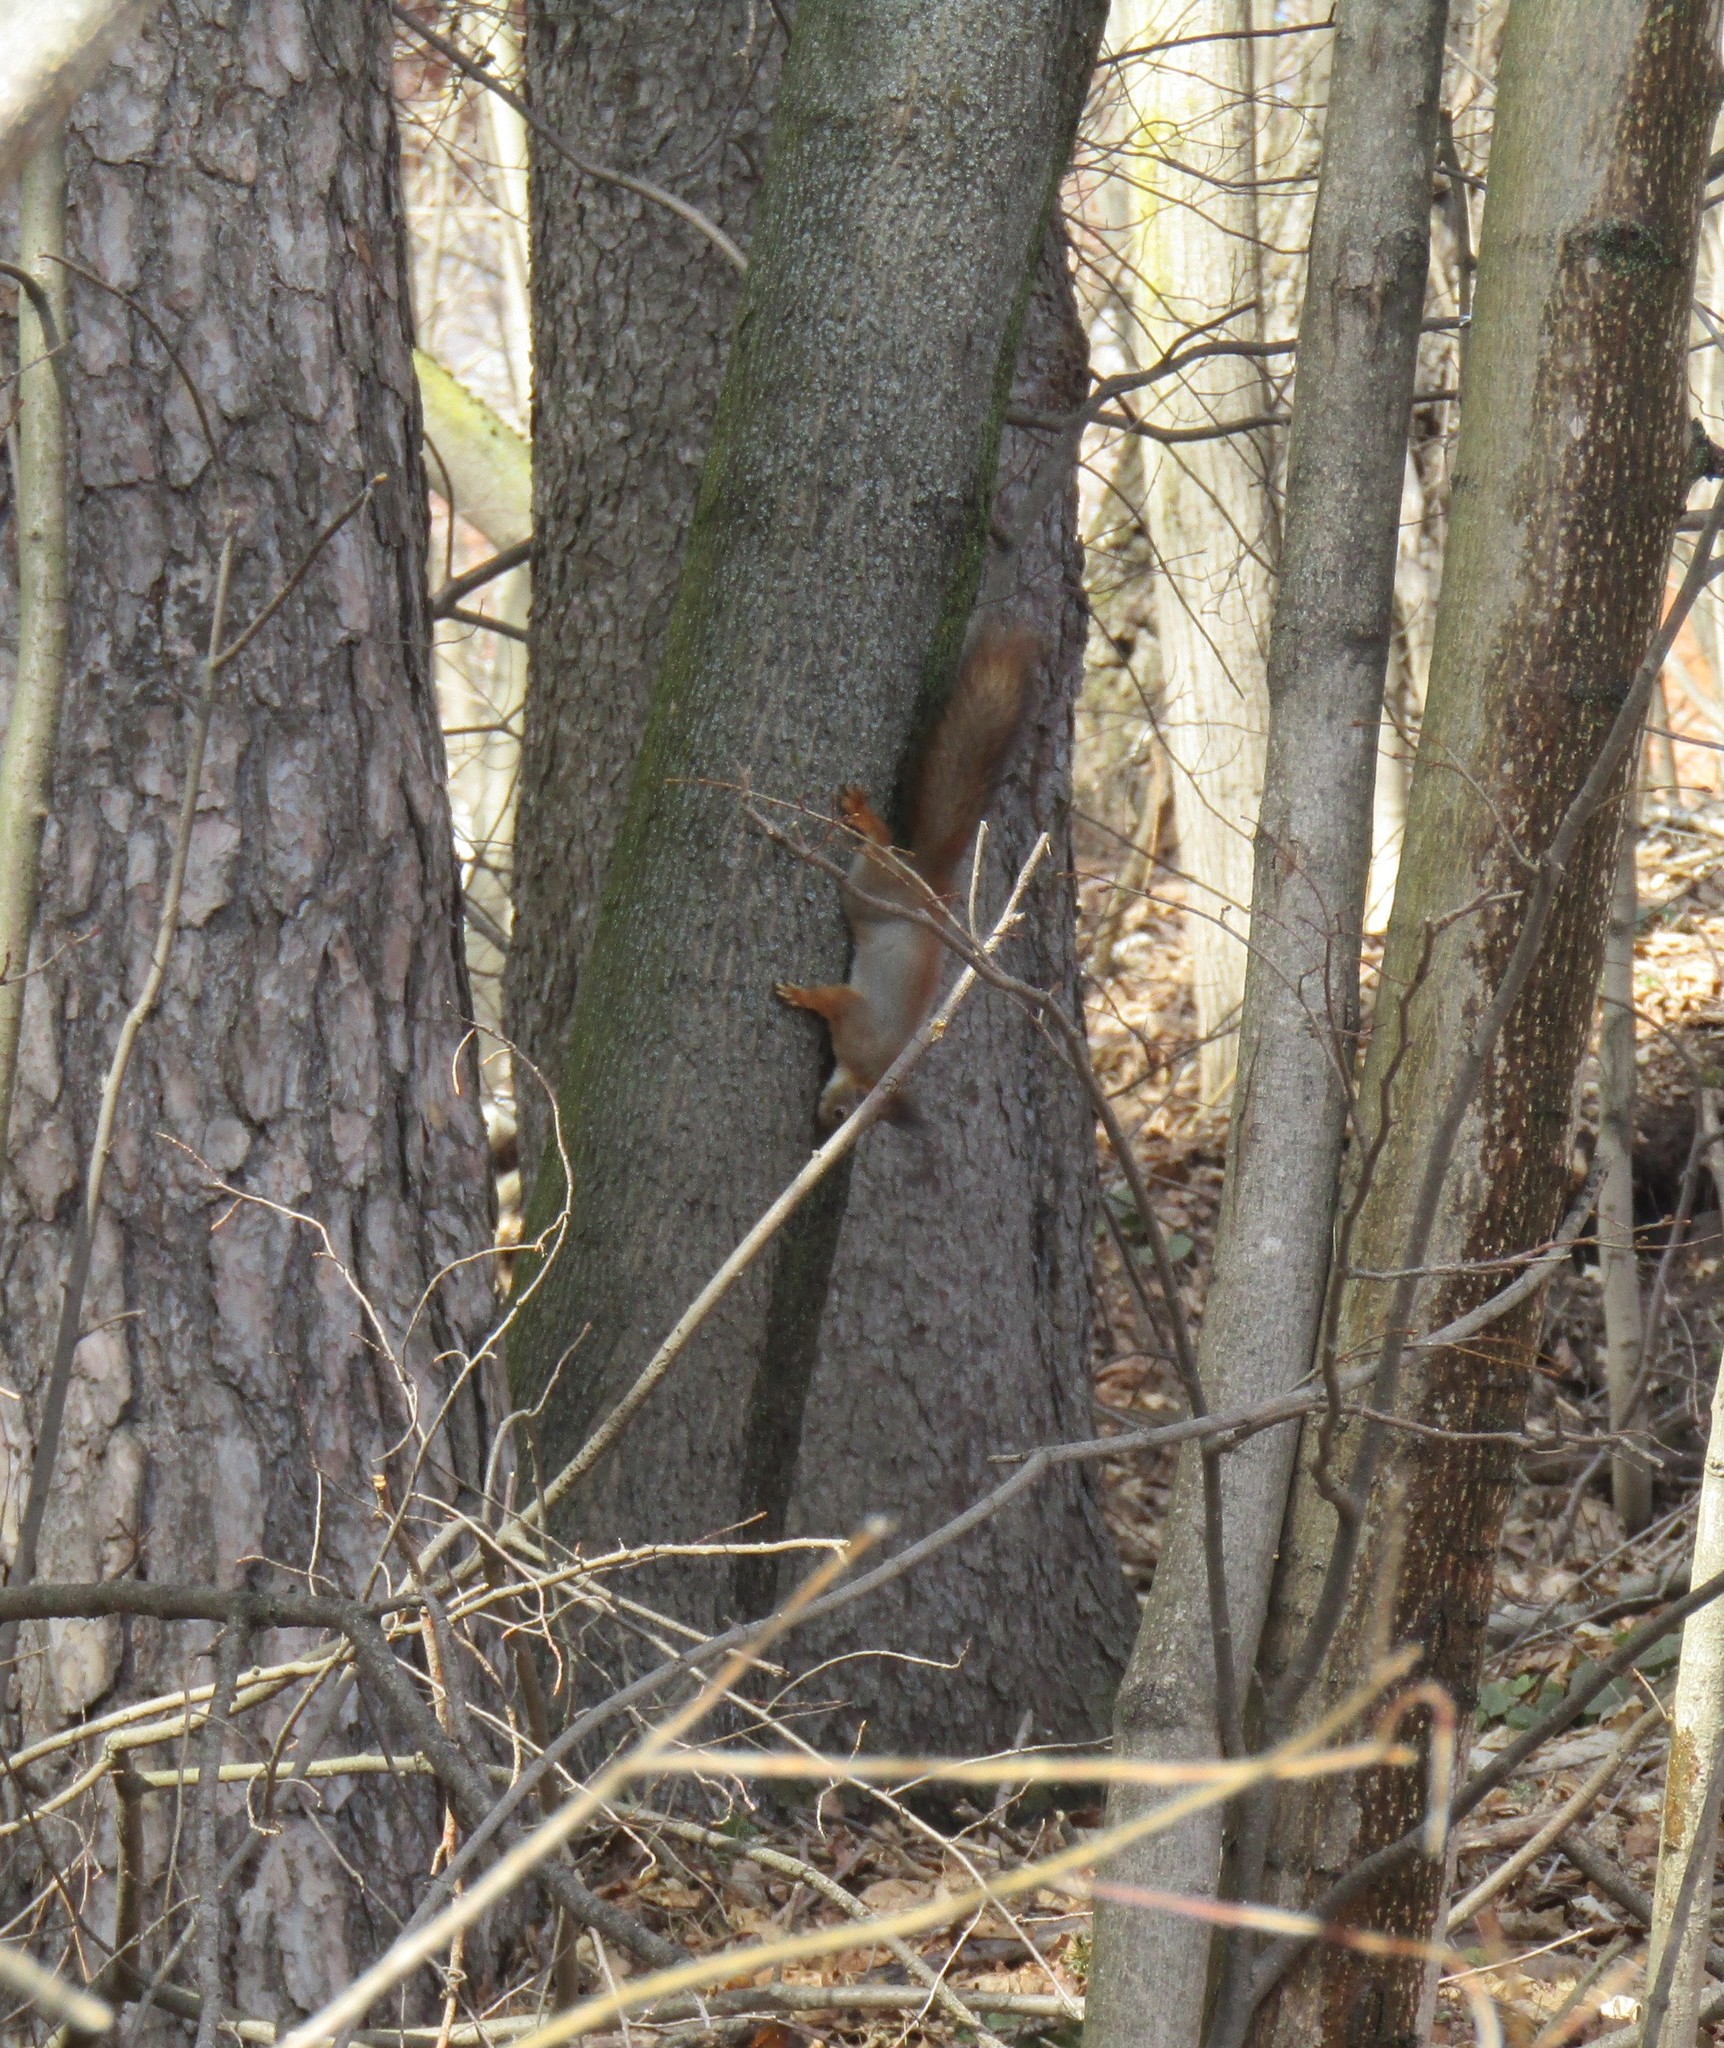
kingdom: Animalia
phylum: Chordata
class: Mammalia
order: Rodentia
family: Sciuridae
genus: Sciurus
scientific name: Sciurus vulgaris
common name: Eurasian red squirrel
